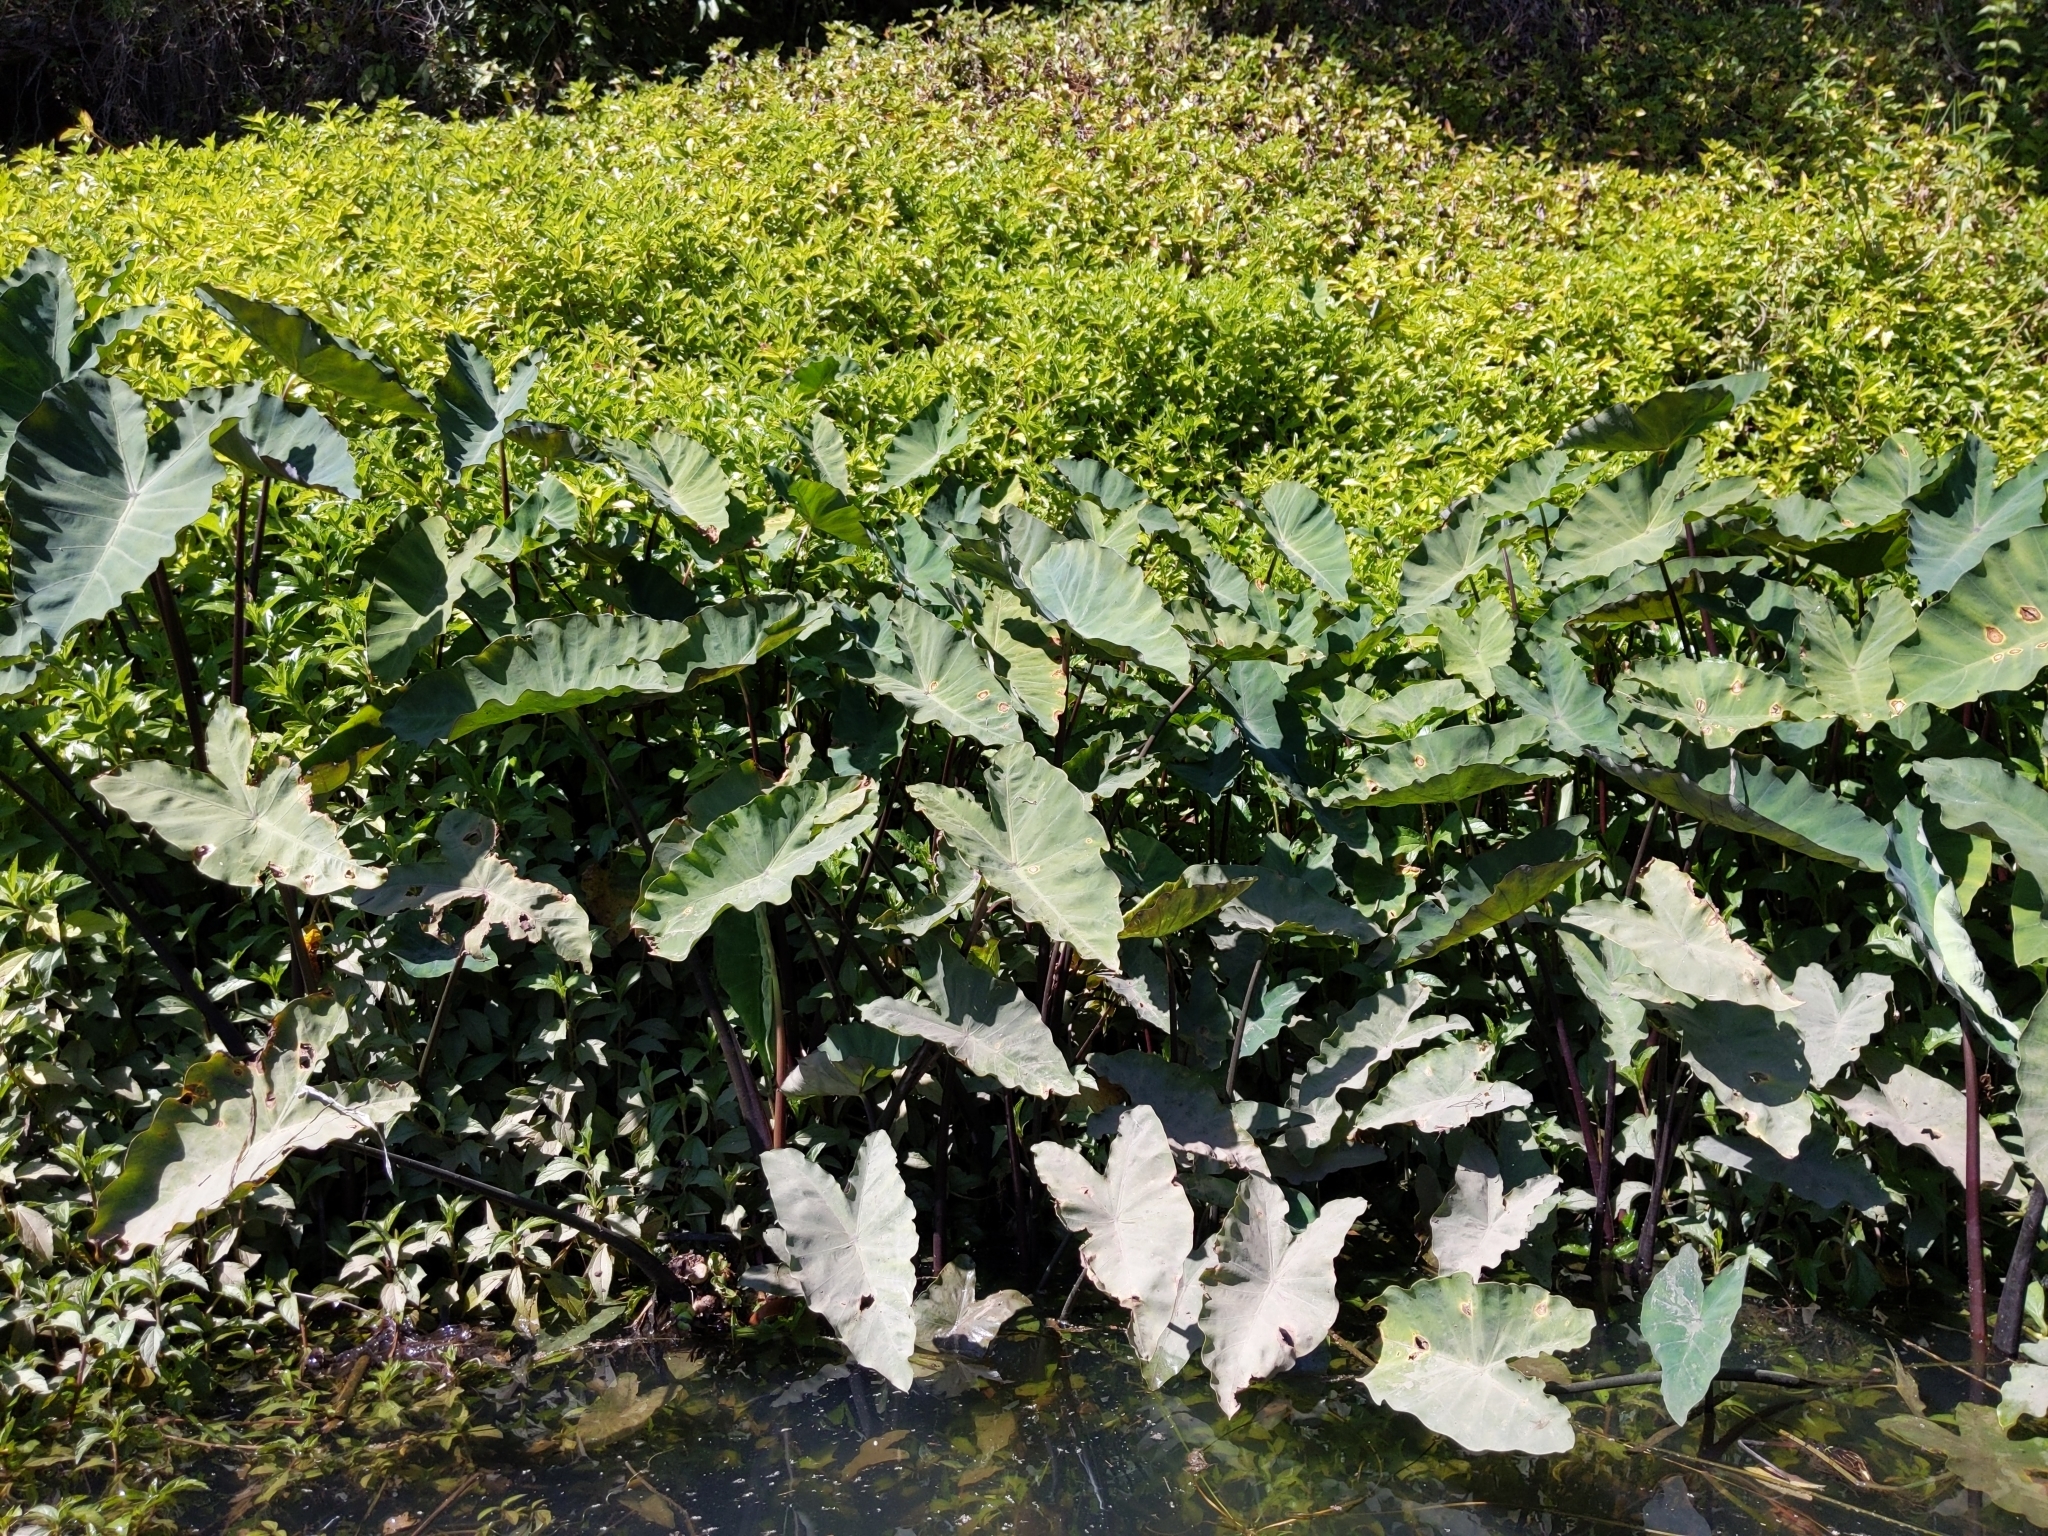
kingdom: Plantae
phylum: Tracheophyta
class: Liliopsida
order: Alismatales
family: Araceae
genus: Colocasia
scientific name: Colocasia esculenta
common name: Taro
